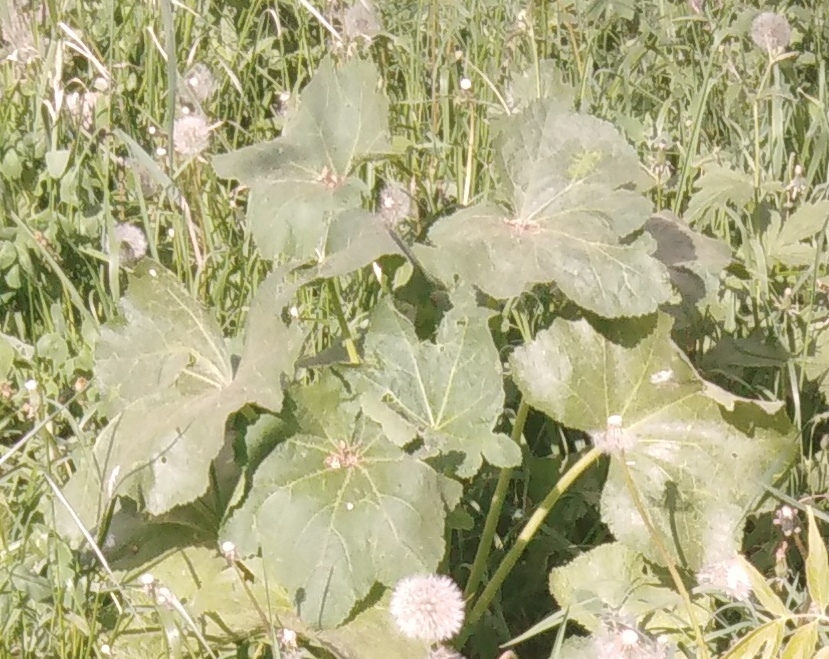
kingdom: Plantae
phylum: Tracheophyta
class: Magnoliopsida
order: Malvales
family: Malvaceae
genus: Alcea
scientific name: Alcea rosea
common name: Hollyhock
